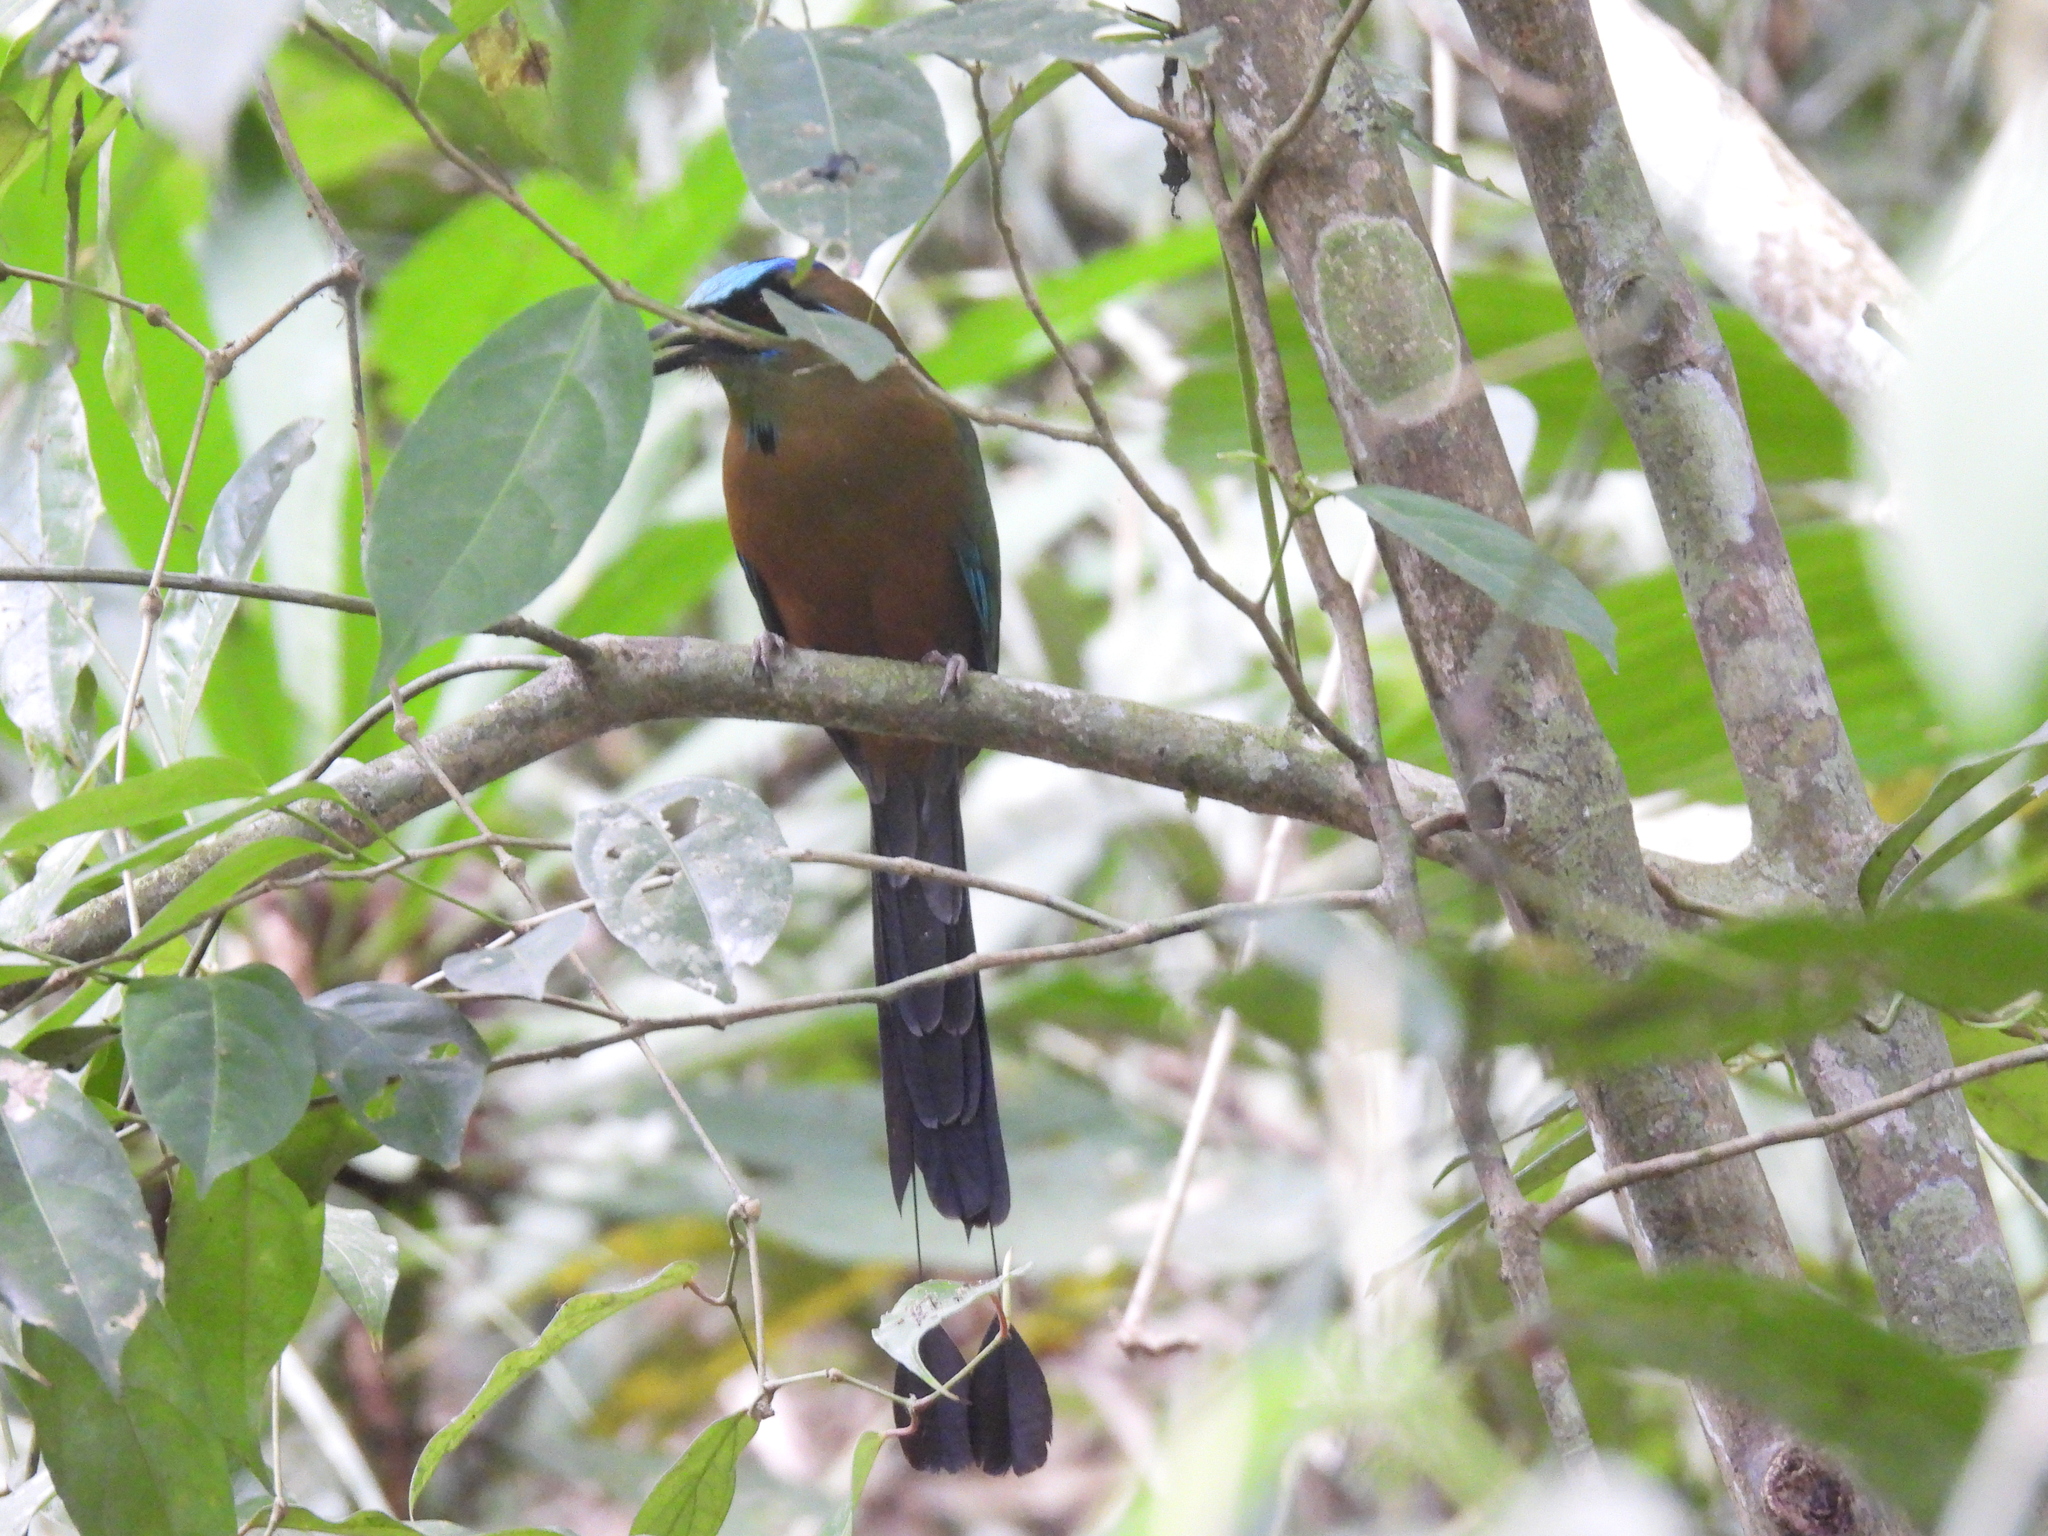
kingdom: Animalia
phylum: Chordata
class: Aves
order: Coraciiformes
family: Momotidae
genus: Momotus
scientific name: Momotus subrufescens
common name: Whooping motmot
